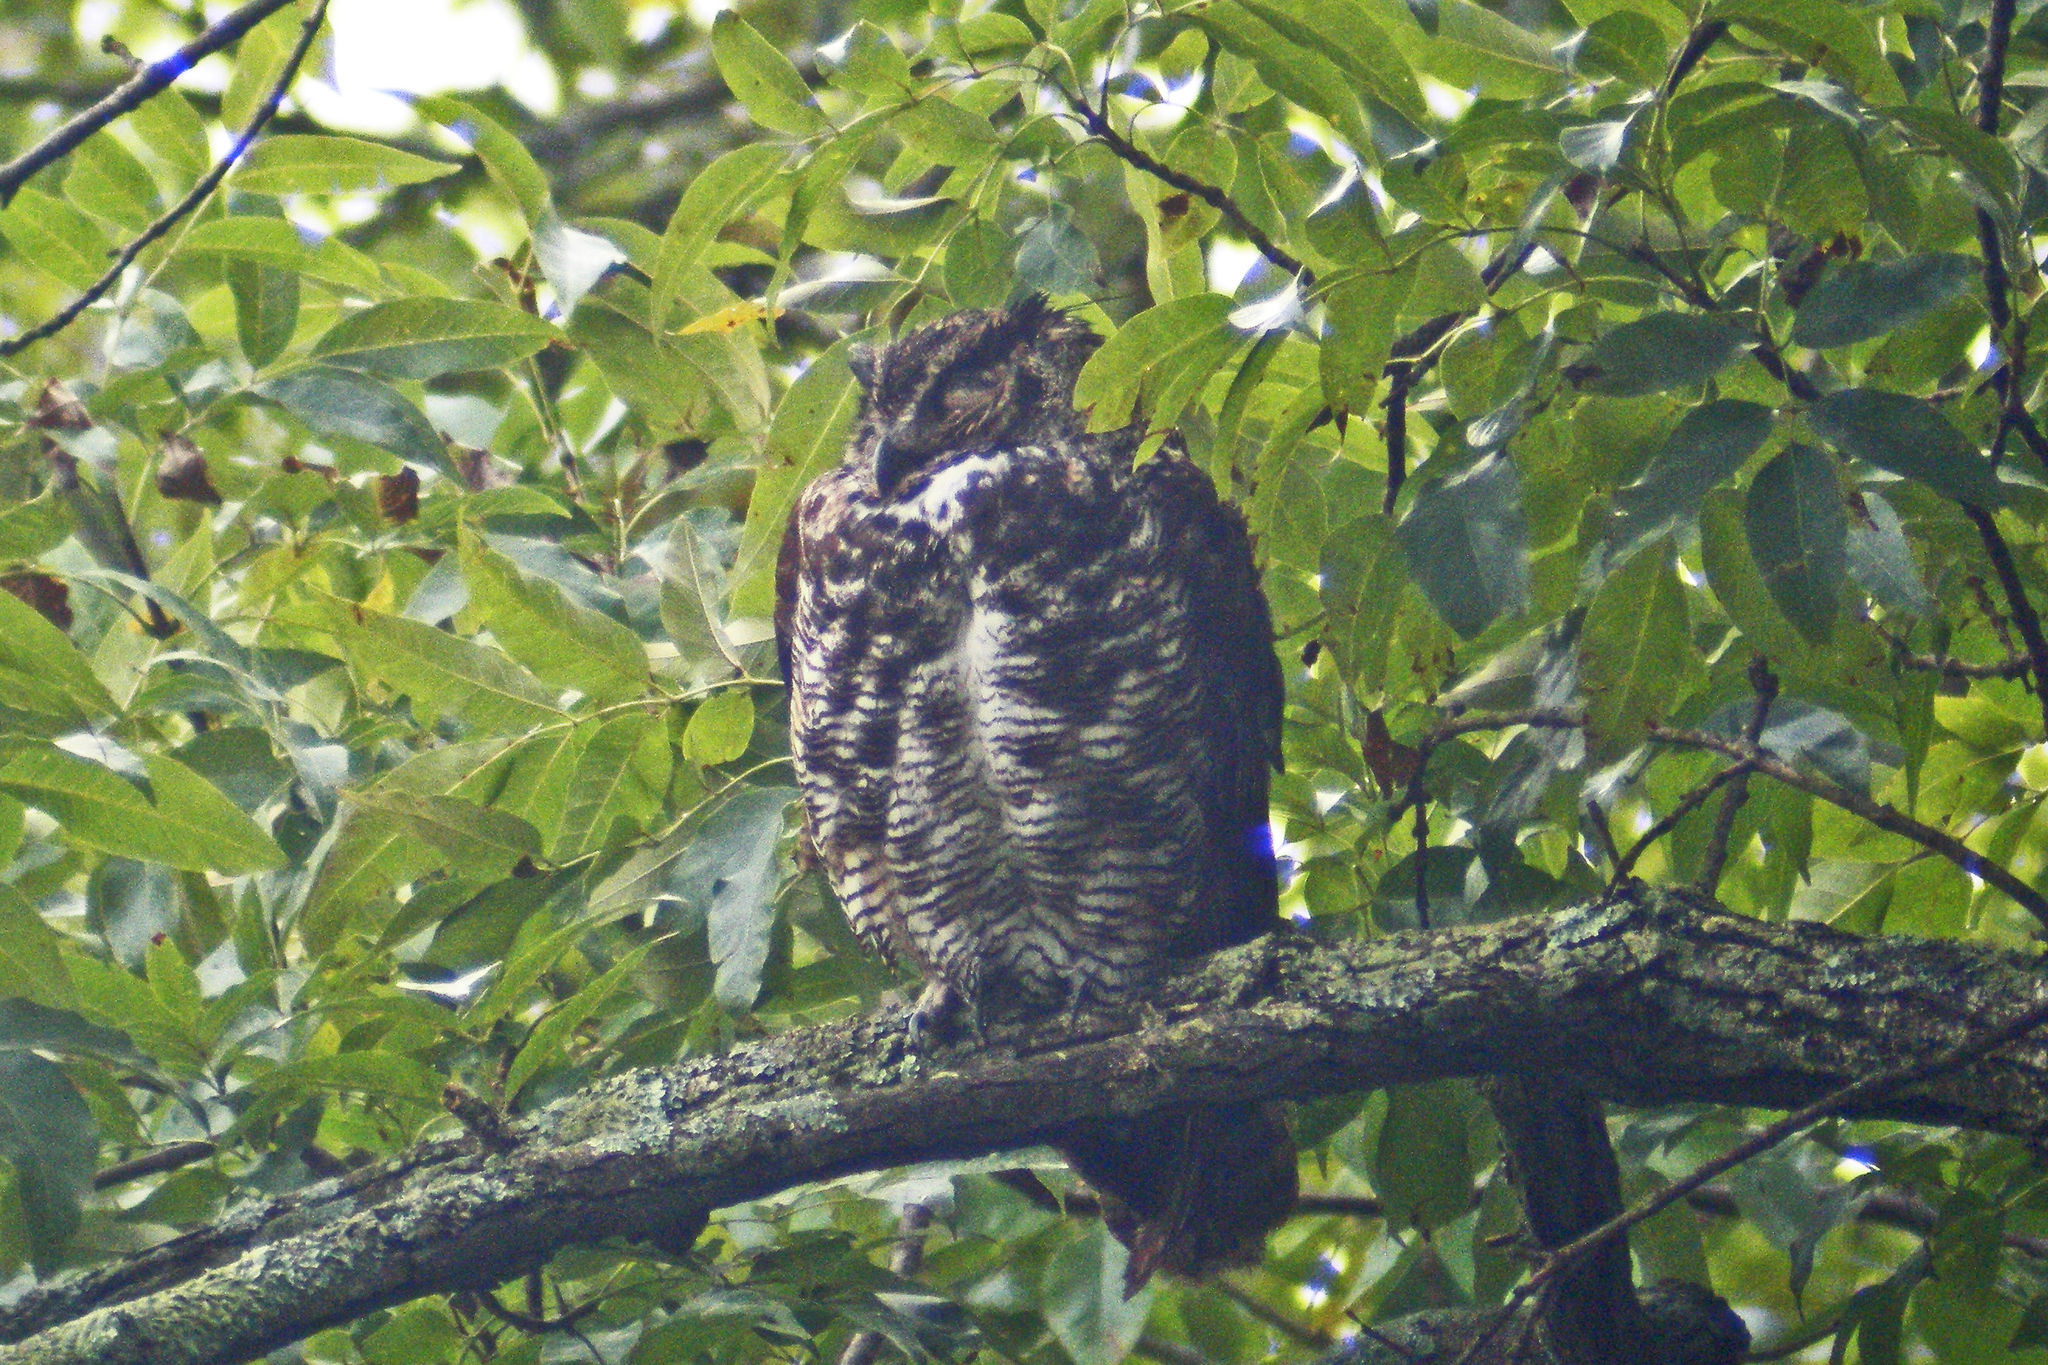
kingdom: Animalia
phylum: Chordata
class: Aves
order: Strigiformes
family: Strigidae
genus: Bubo
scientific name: Bubo virginianus
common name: Great horned owl
